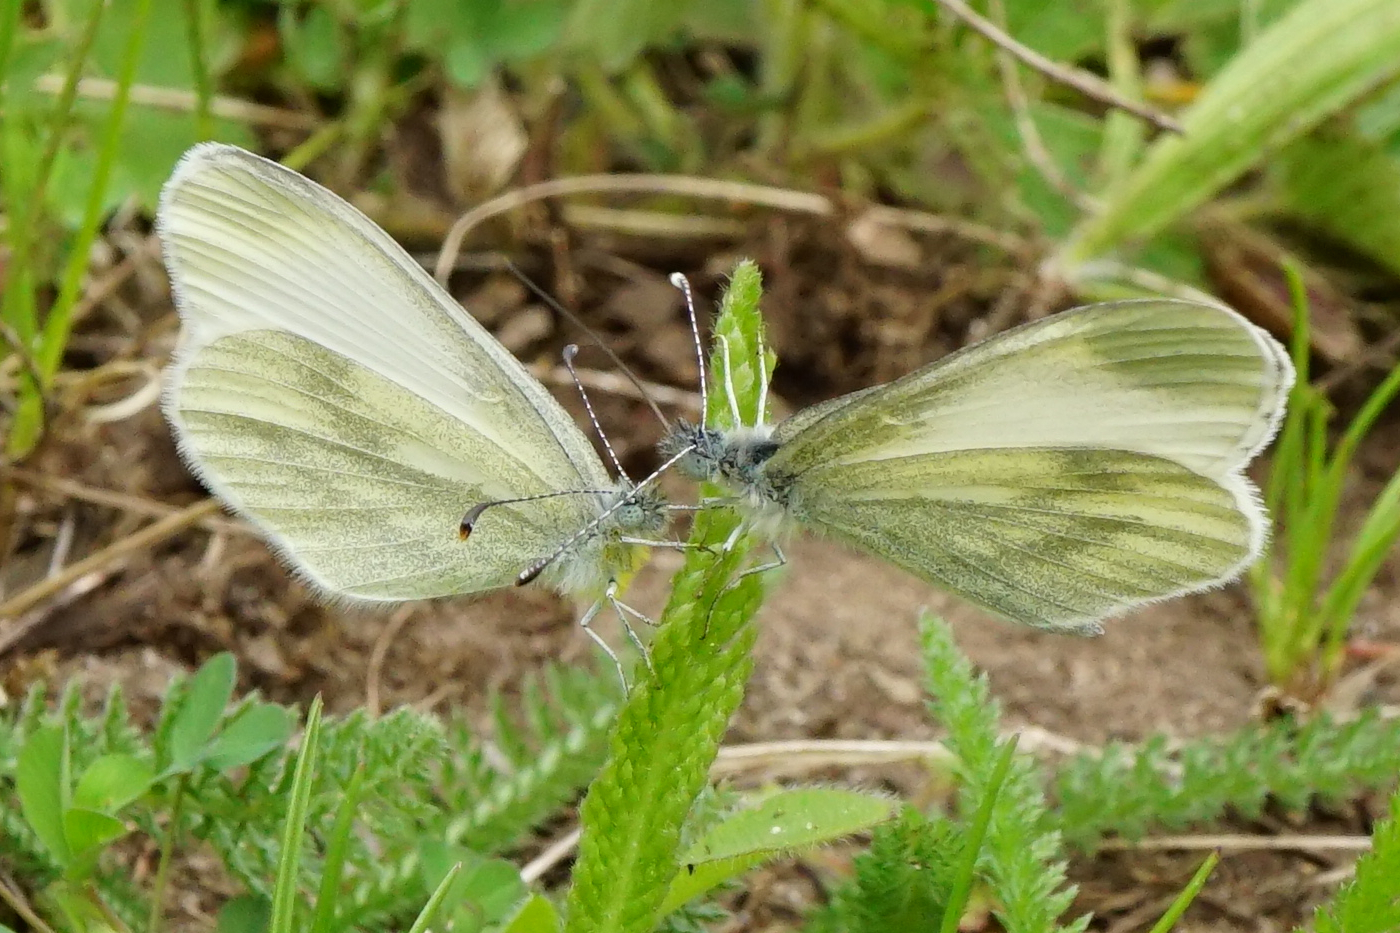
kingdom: Animalia
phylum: Arthropoda
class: Insecta
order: Lepidoptera
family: Pieridae
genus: Leptidea
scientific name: Leptidea
